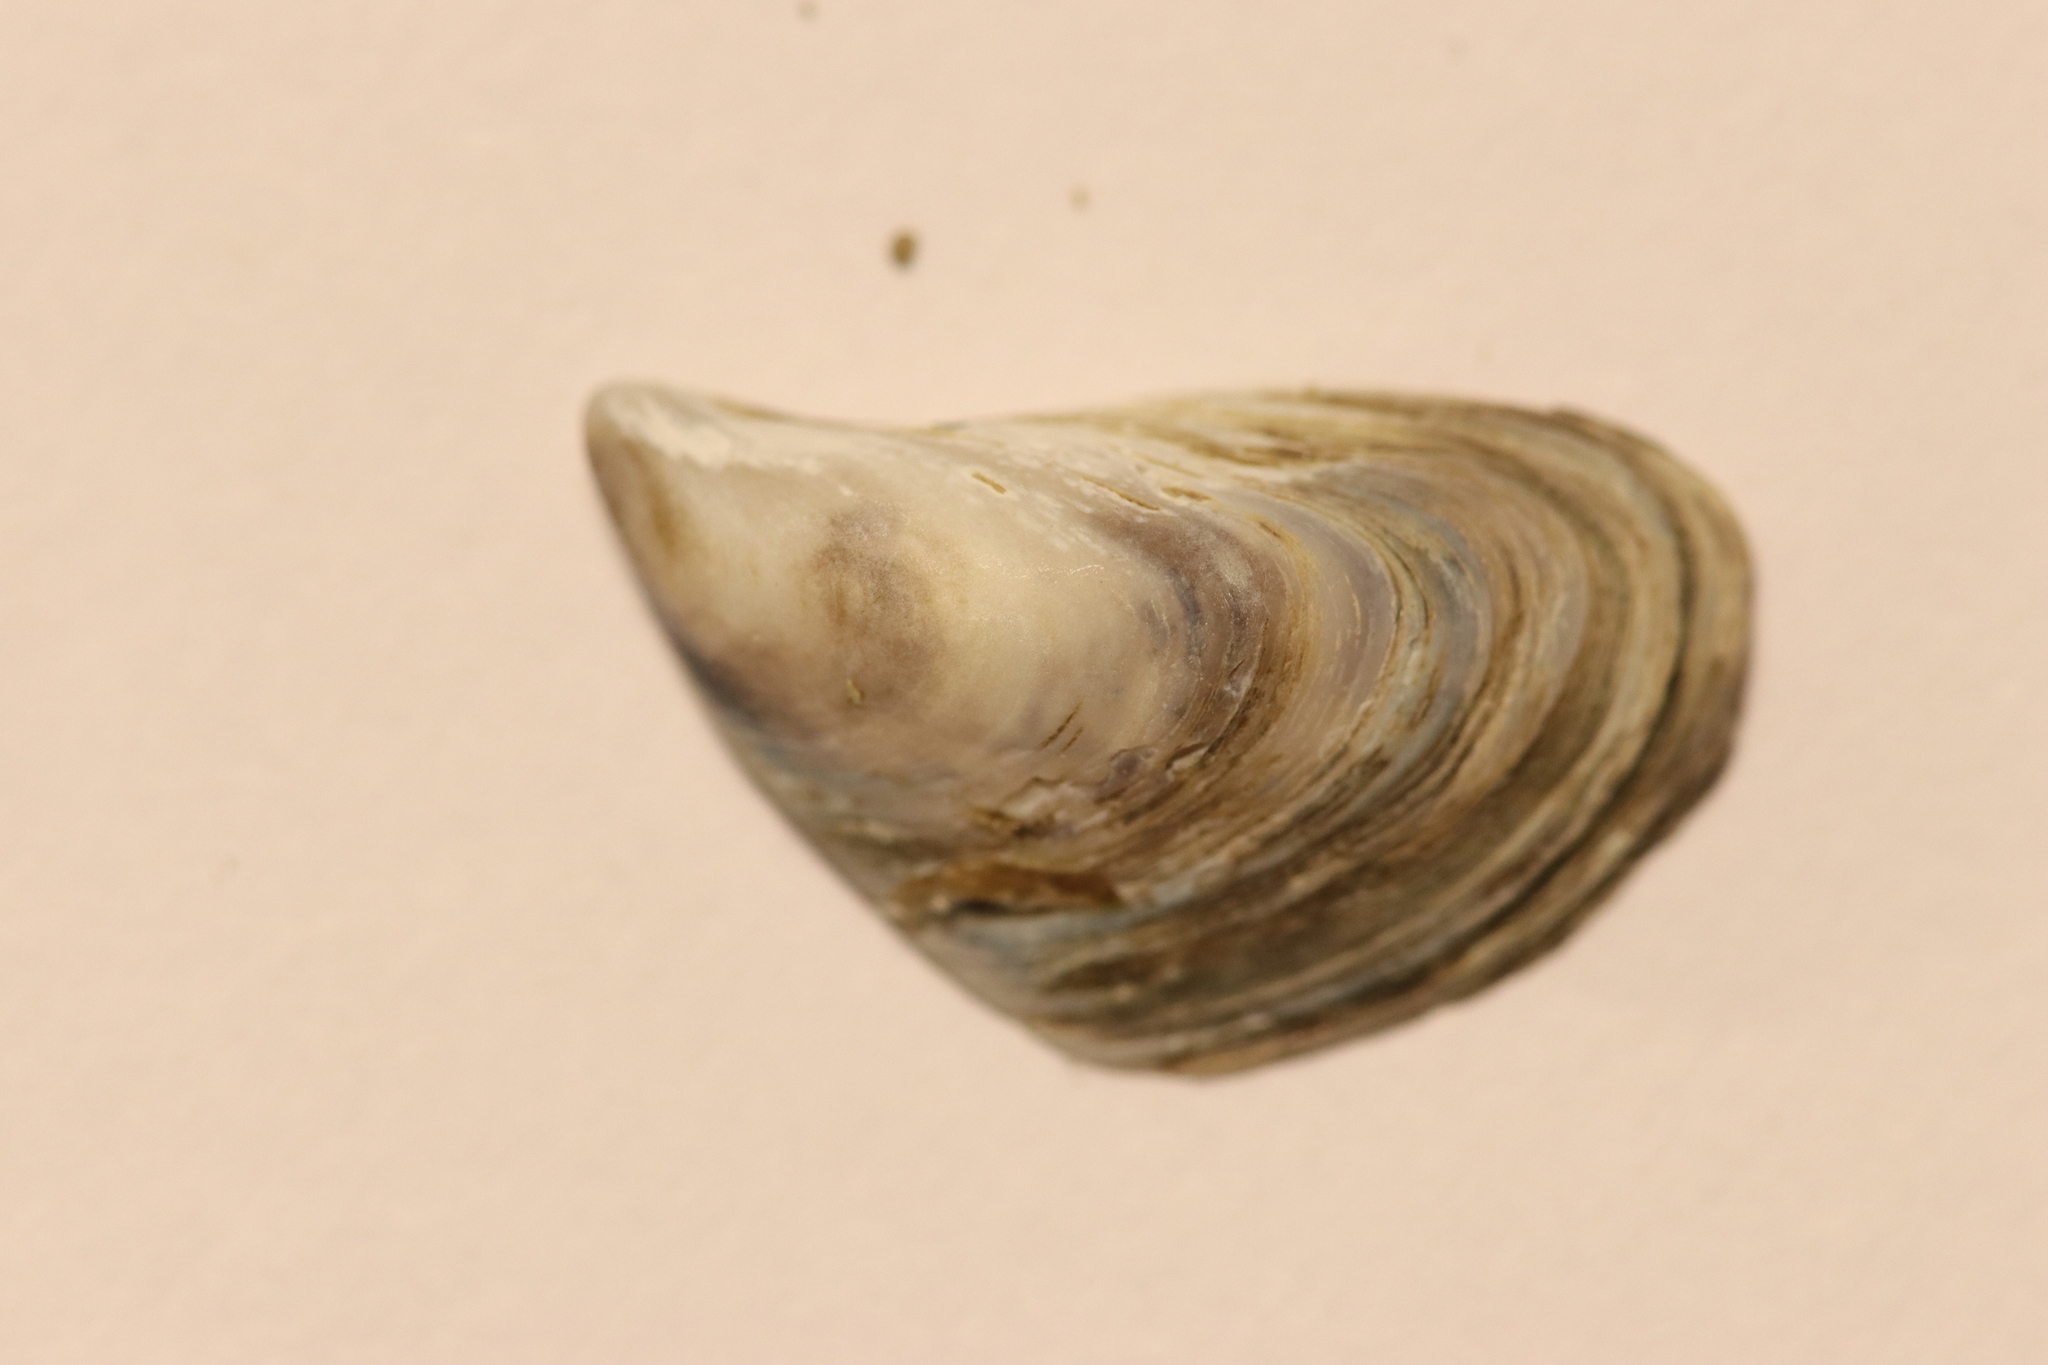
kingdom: Animalia
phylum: Mollusca
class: Bivalvia
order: Myida
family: Dreissenidae
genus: Dreissena
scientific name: Dreissena bugensis
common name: Quagga mussel
